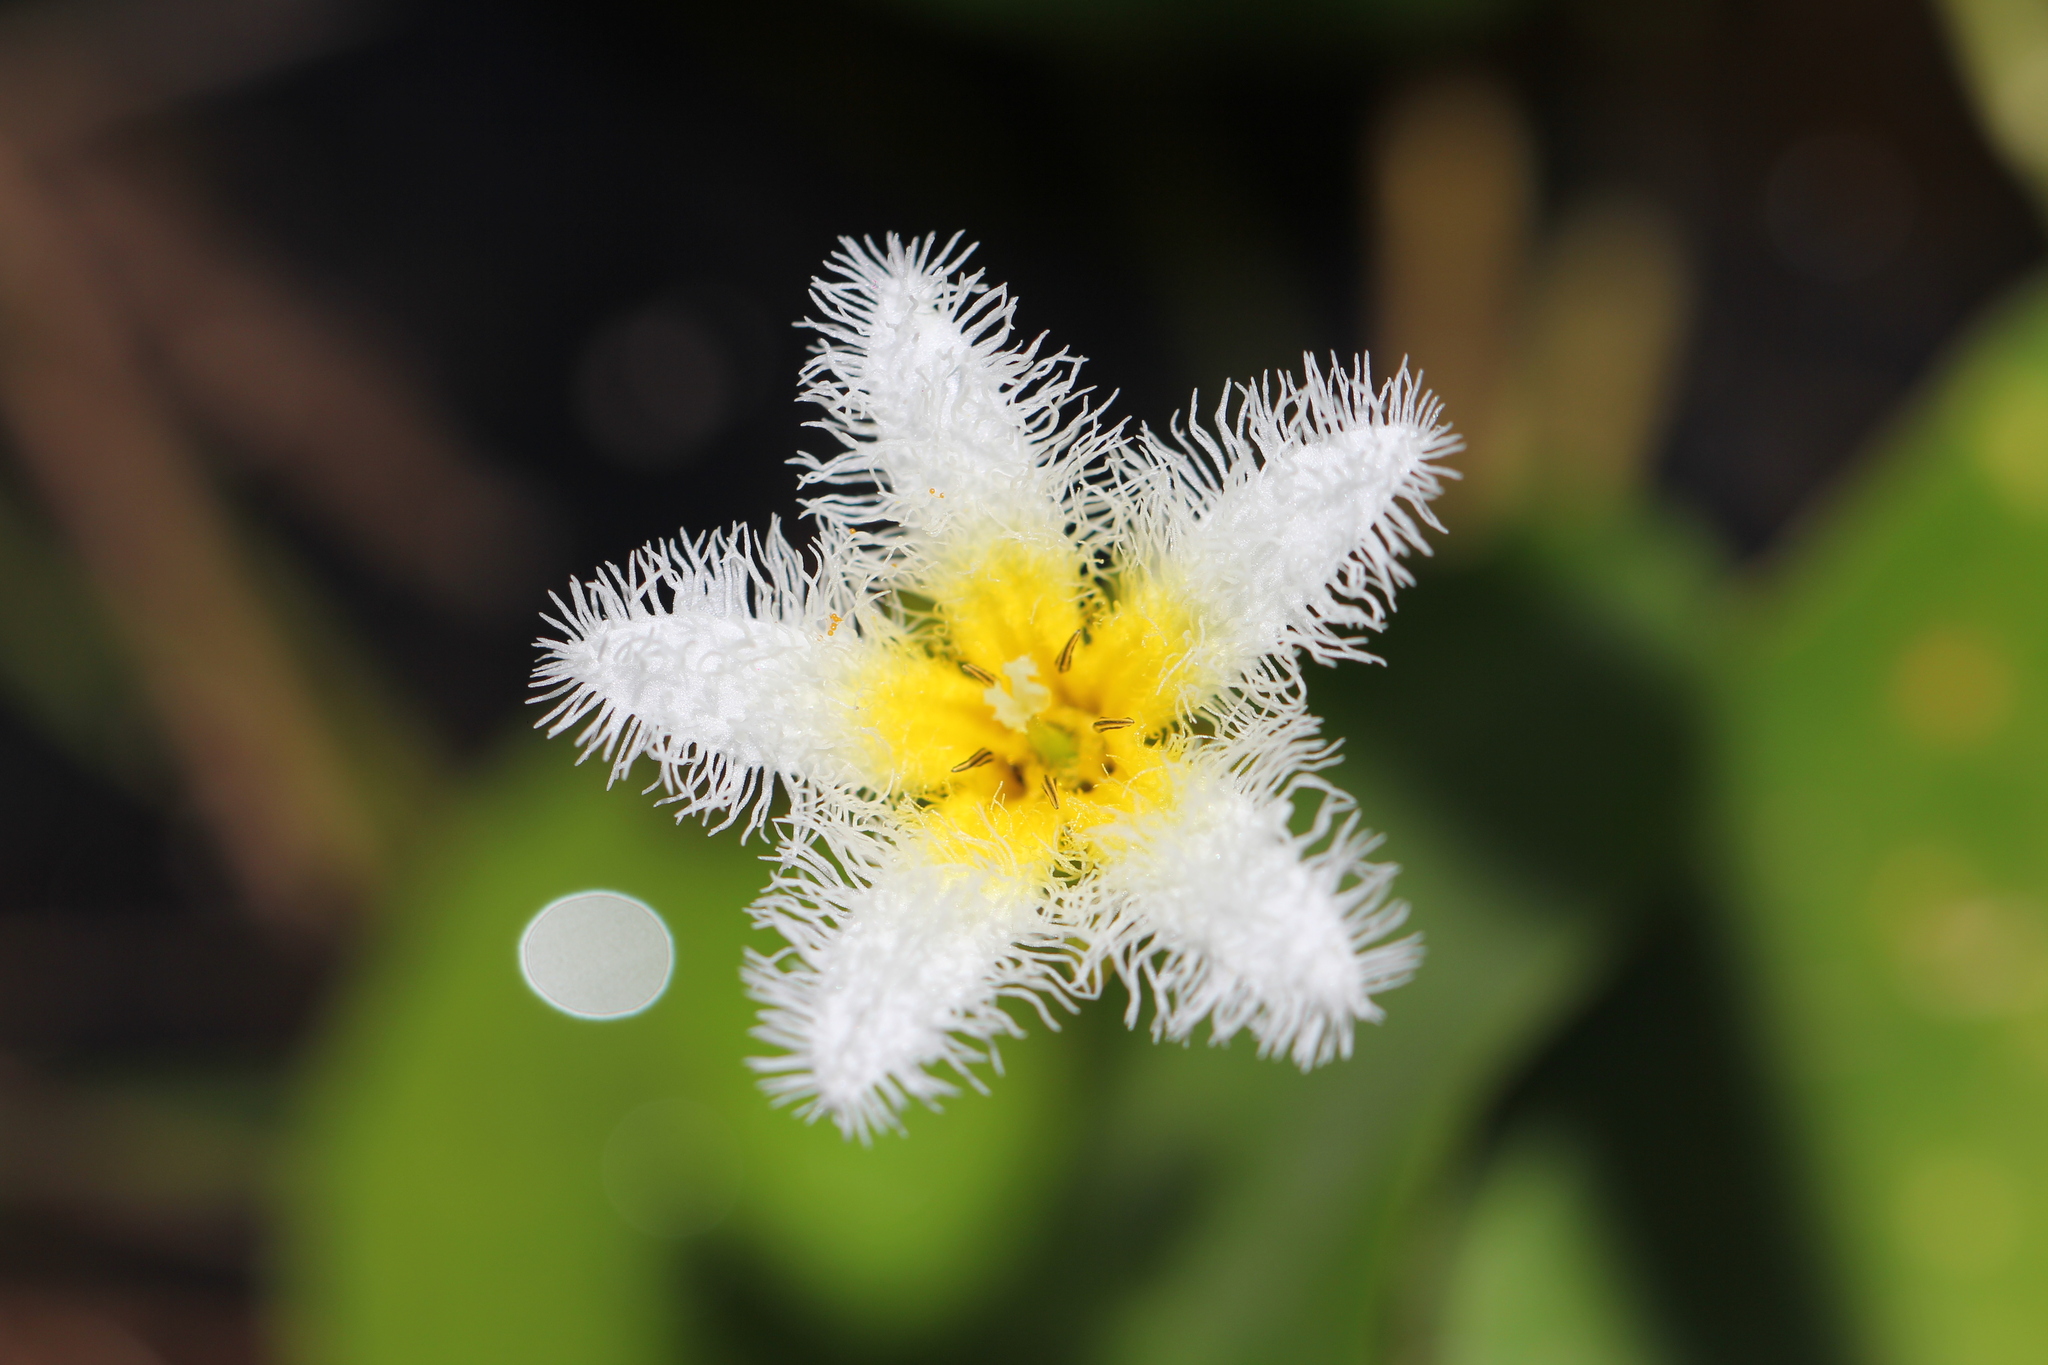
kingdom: Plantae
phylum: Tracheophyta
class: Magnoliopsida
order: Asterales
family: Menyanthaceae
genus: Nymphoides
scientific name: Nymphoides humboldtiana
